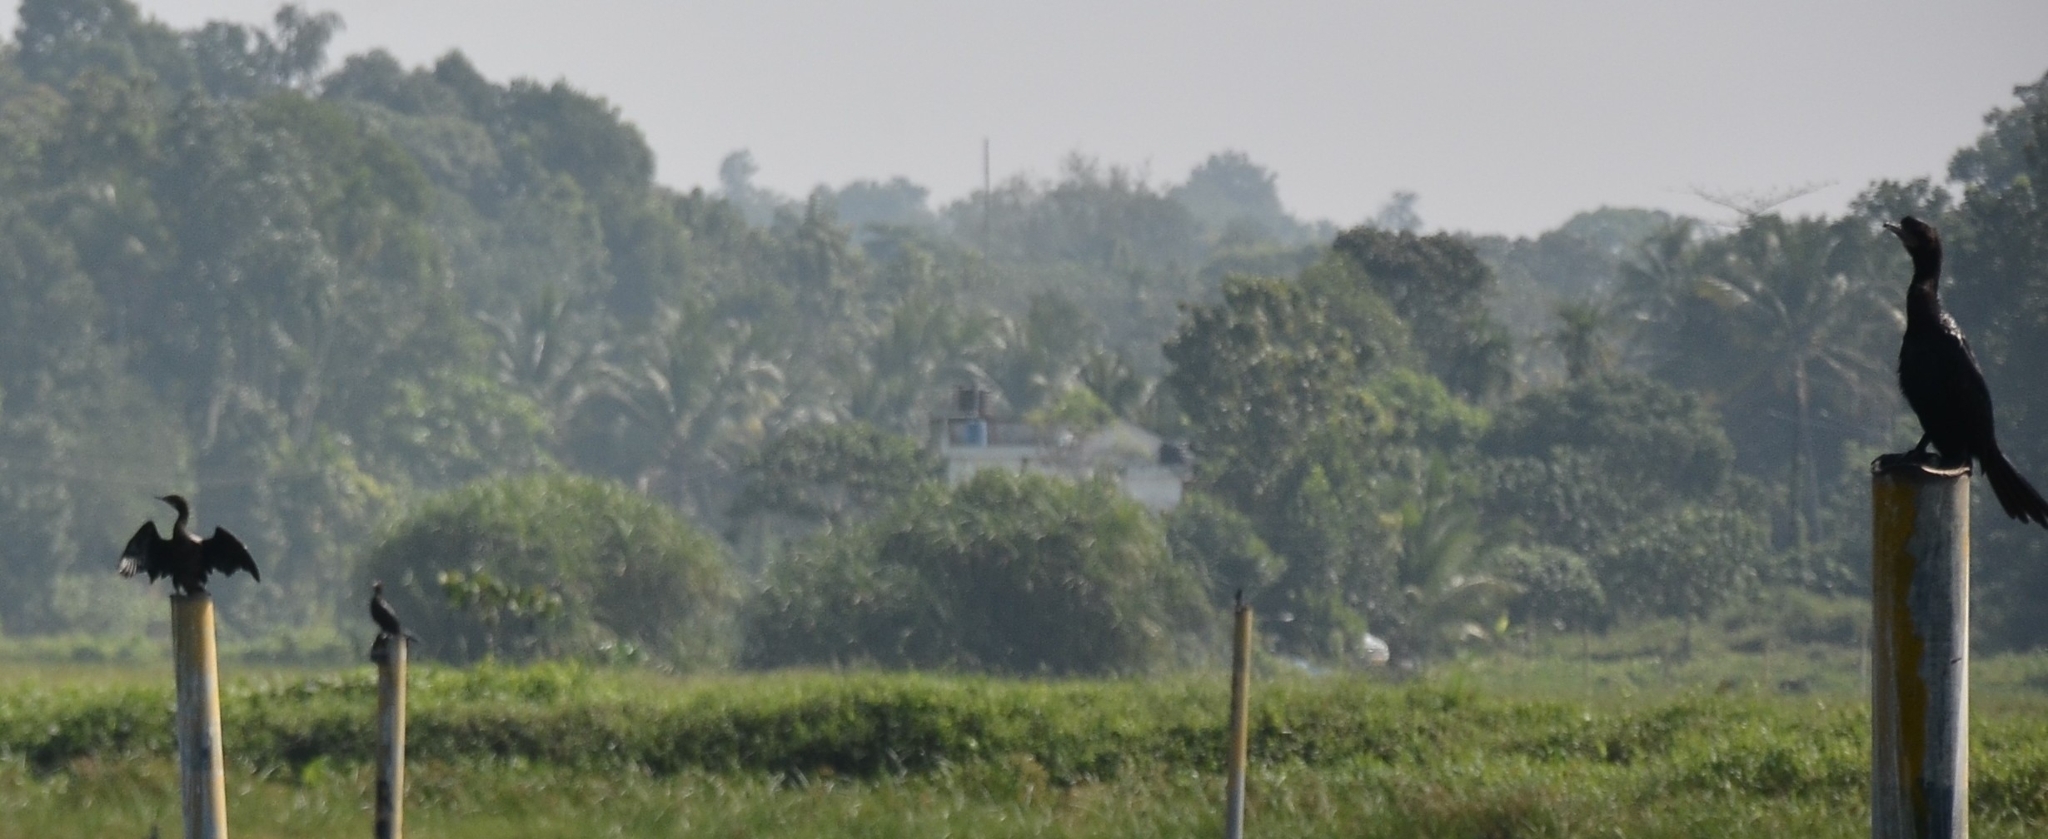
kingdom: Animalia
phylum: Chordata
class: Aves
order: Suliformes
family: Phalacrocoracidae
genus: Microcarbo
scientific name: Microcarbo niger
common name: Little cormorant
